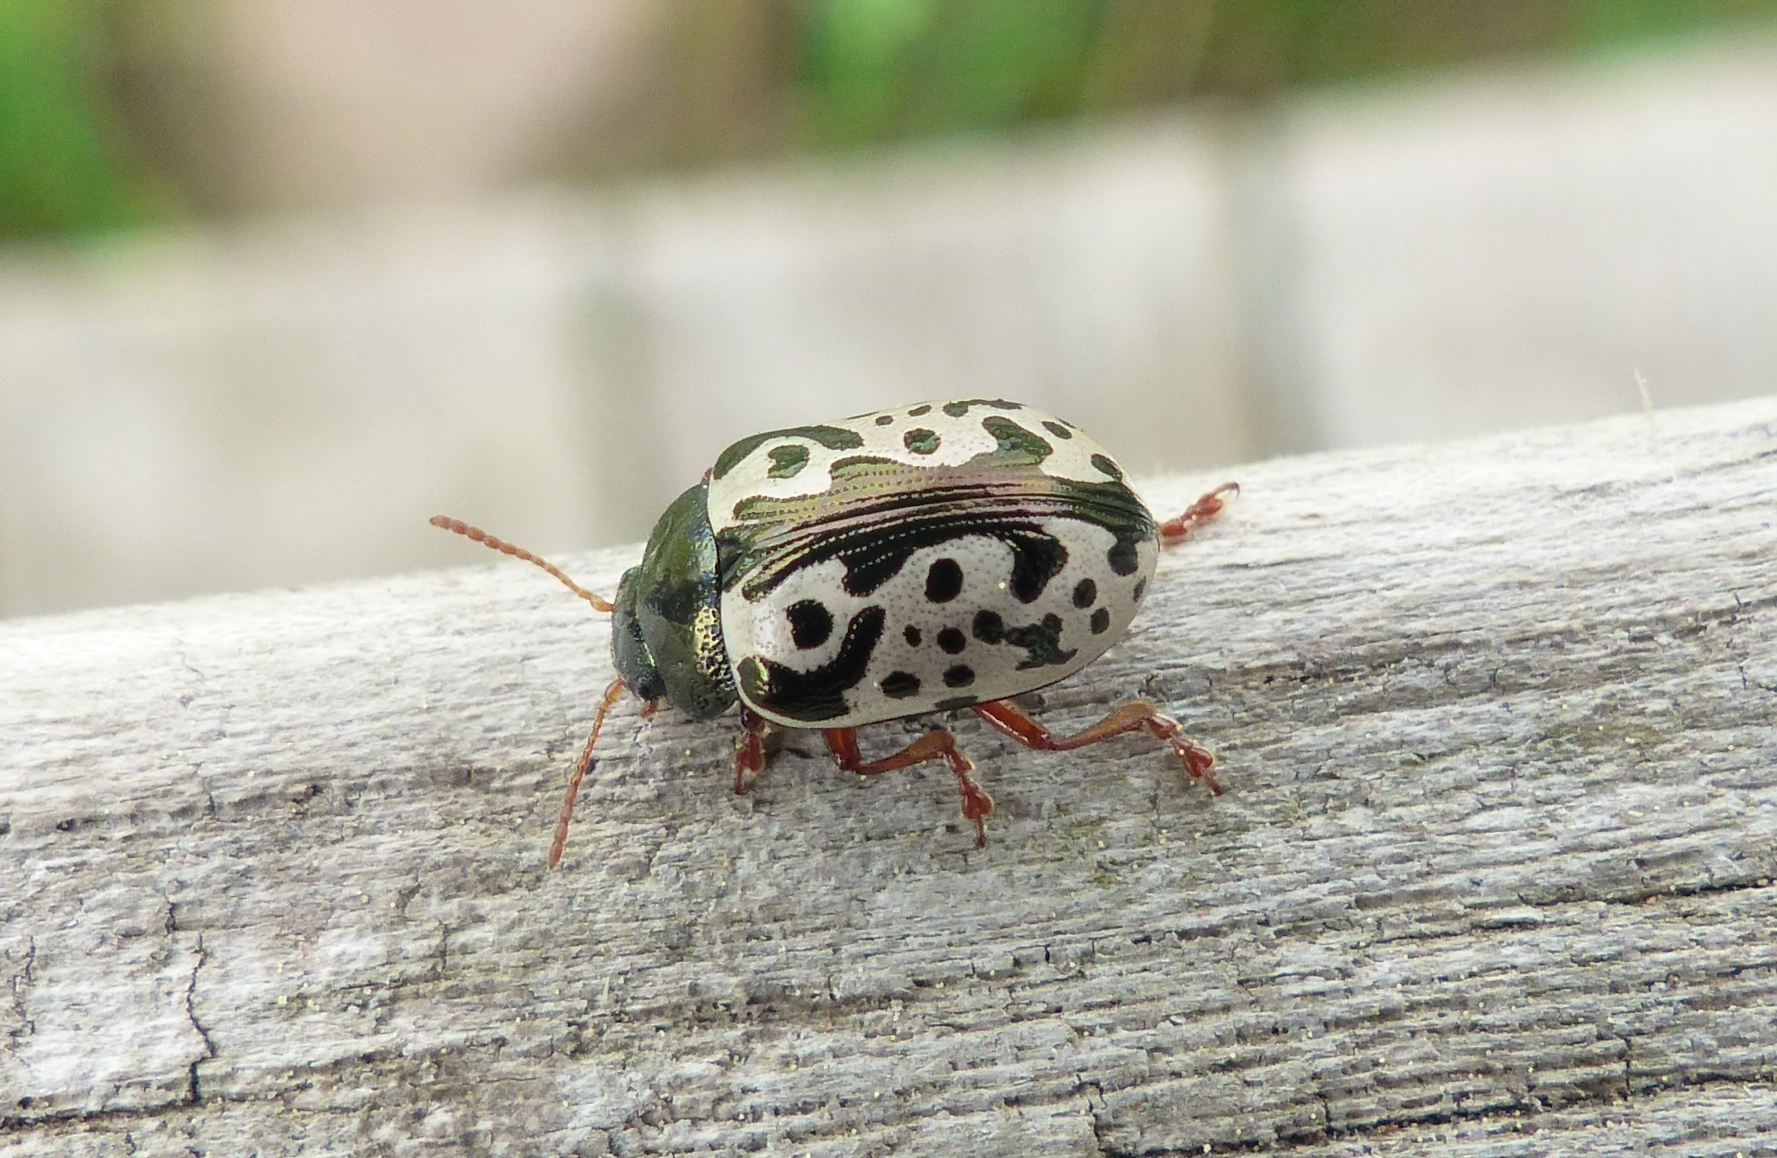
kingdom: Animalia
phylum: Arthropoda
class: Insecta
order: Coleoptera
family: Chrysomelidae
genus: Calligrapha
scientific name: Calligrapha amator
